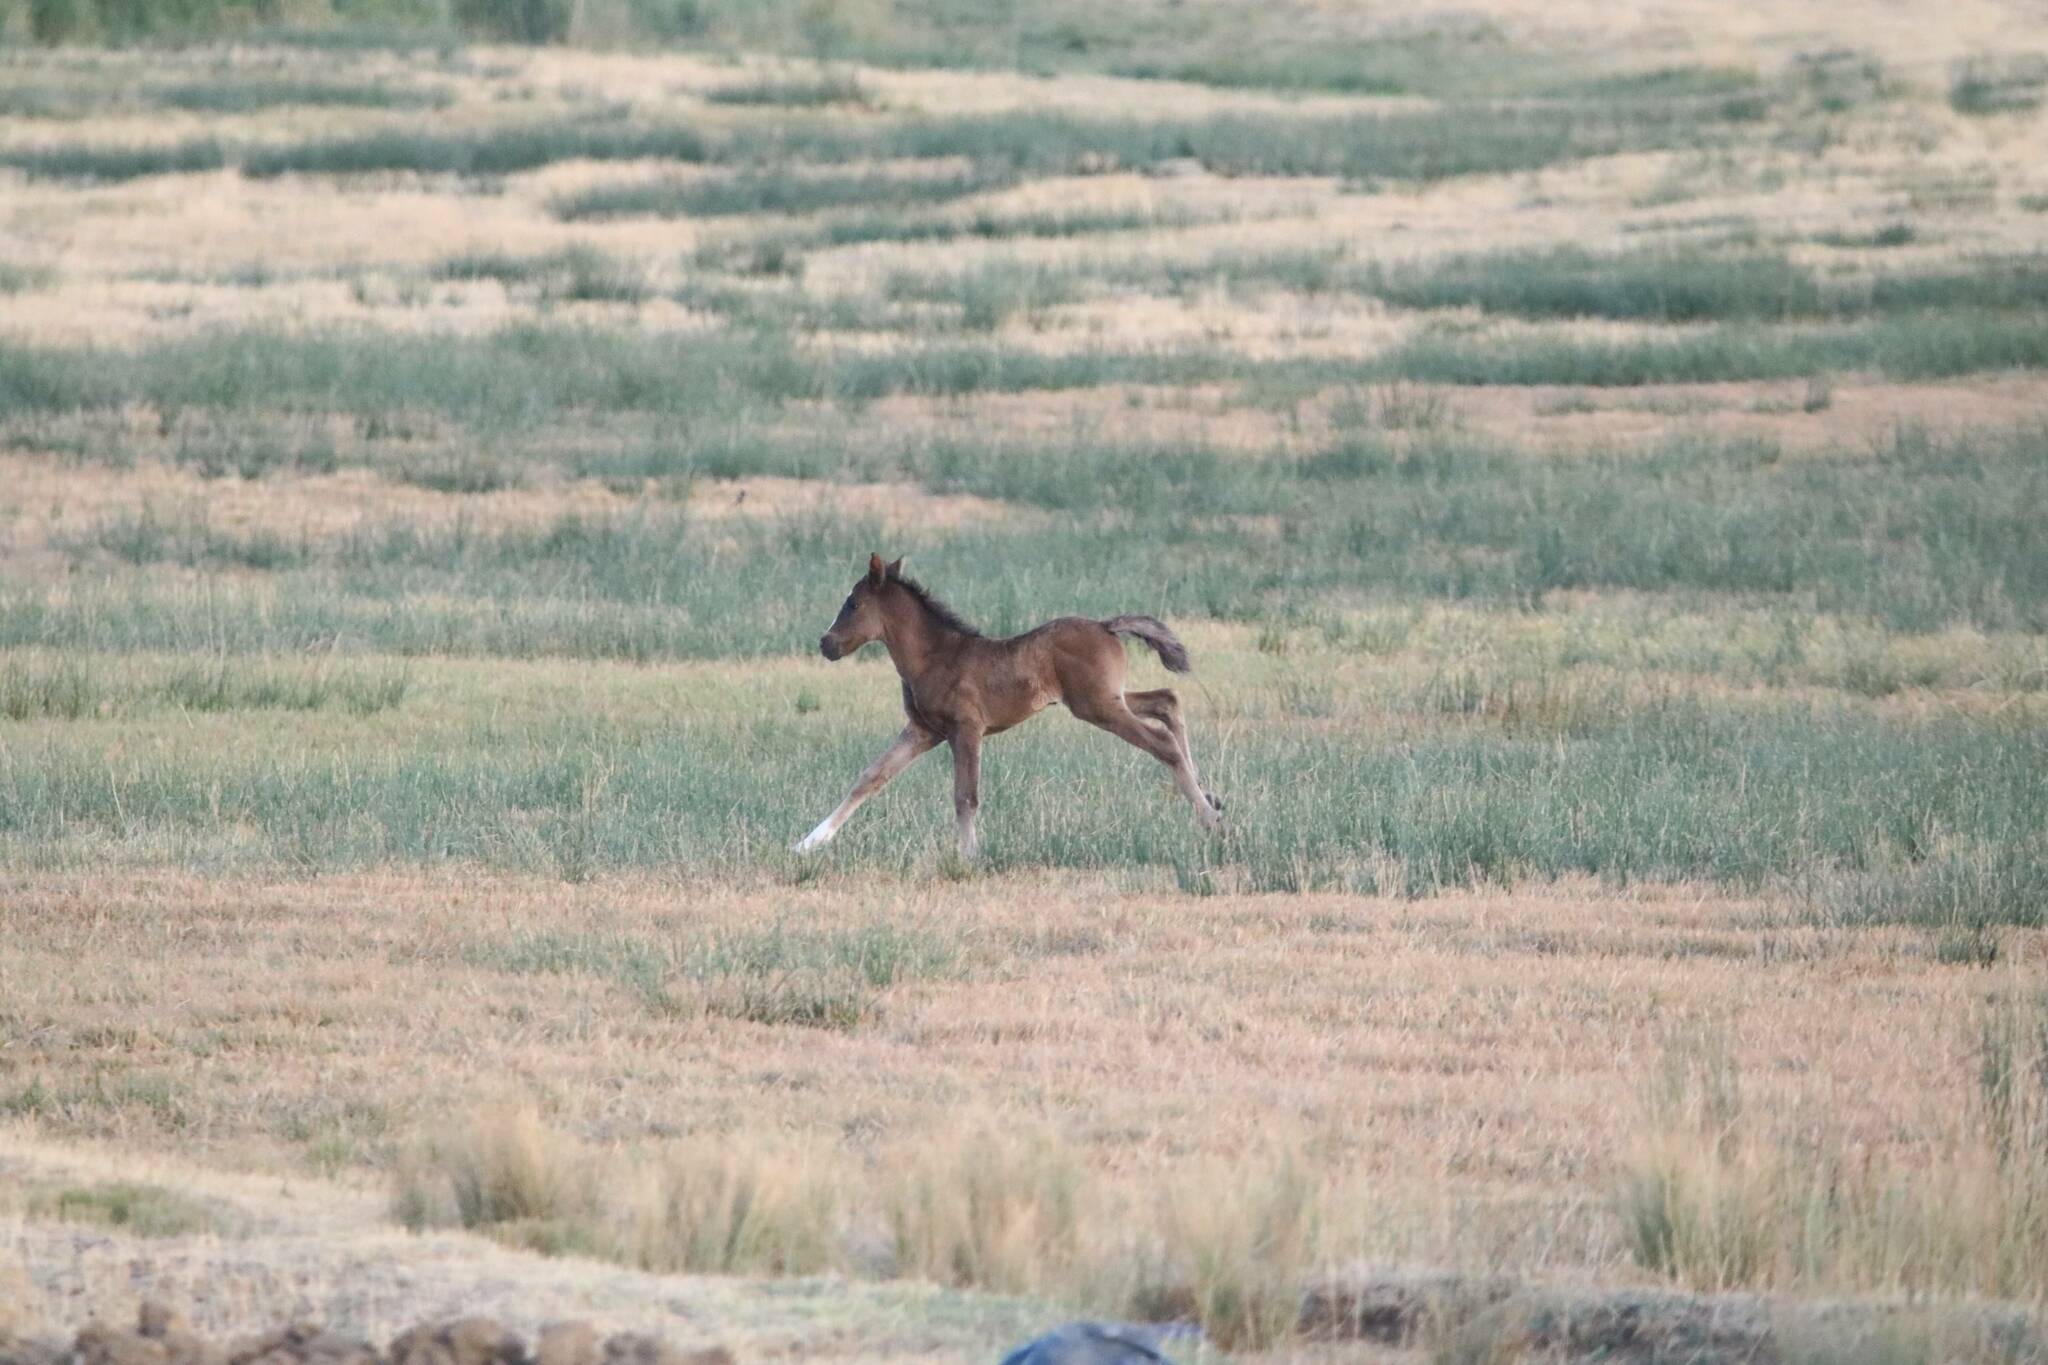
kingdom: Animalia
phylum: Chordata
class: Mammalia
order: Perissodactyla
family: Equidae
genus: Equus
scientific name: Equus caballus
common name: Horse
